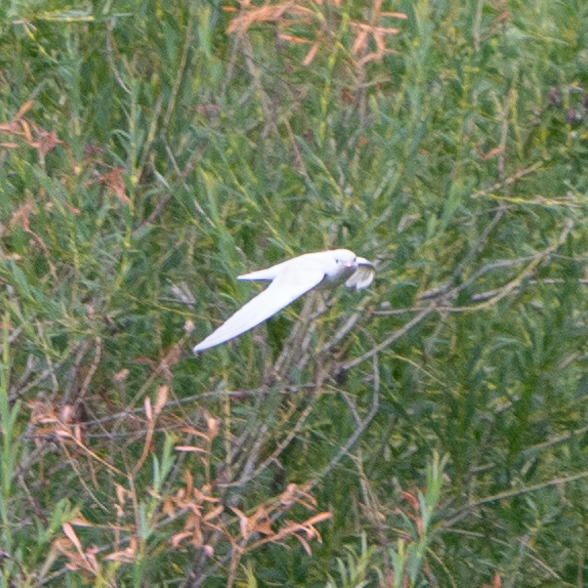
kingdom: Animalia
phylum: Chordata
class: Aves
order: Passeriformes
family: Hirundinidae
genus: Hirundo
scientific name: Hirundo rustica
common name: Barn swallow
